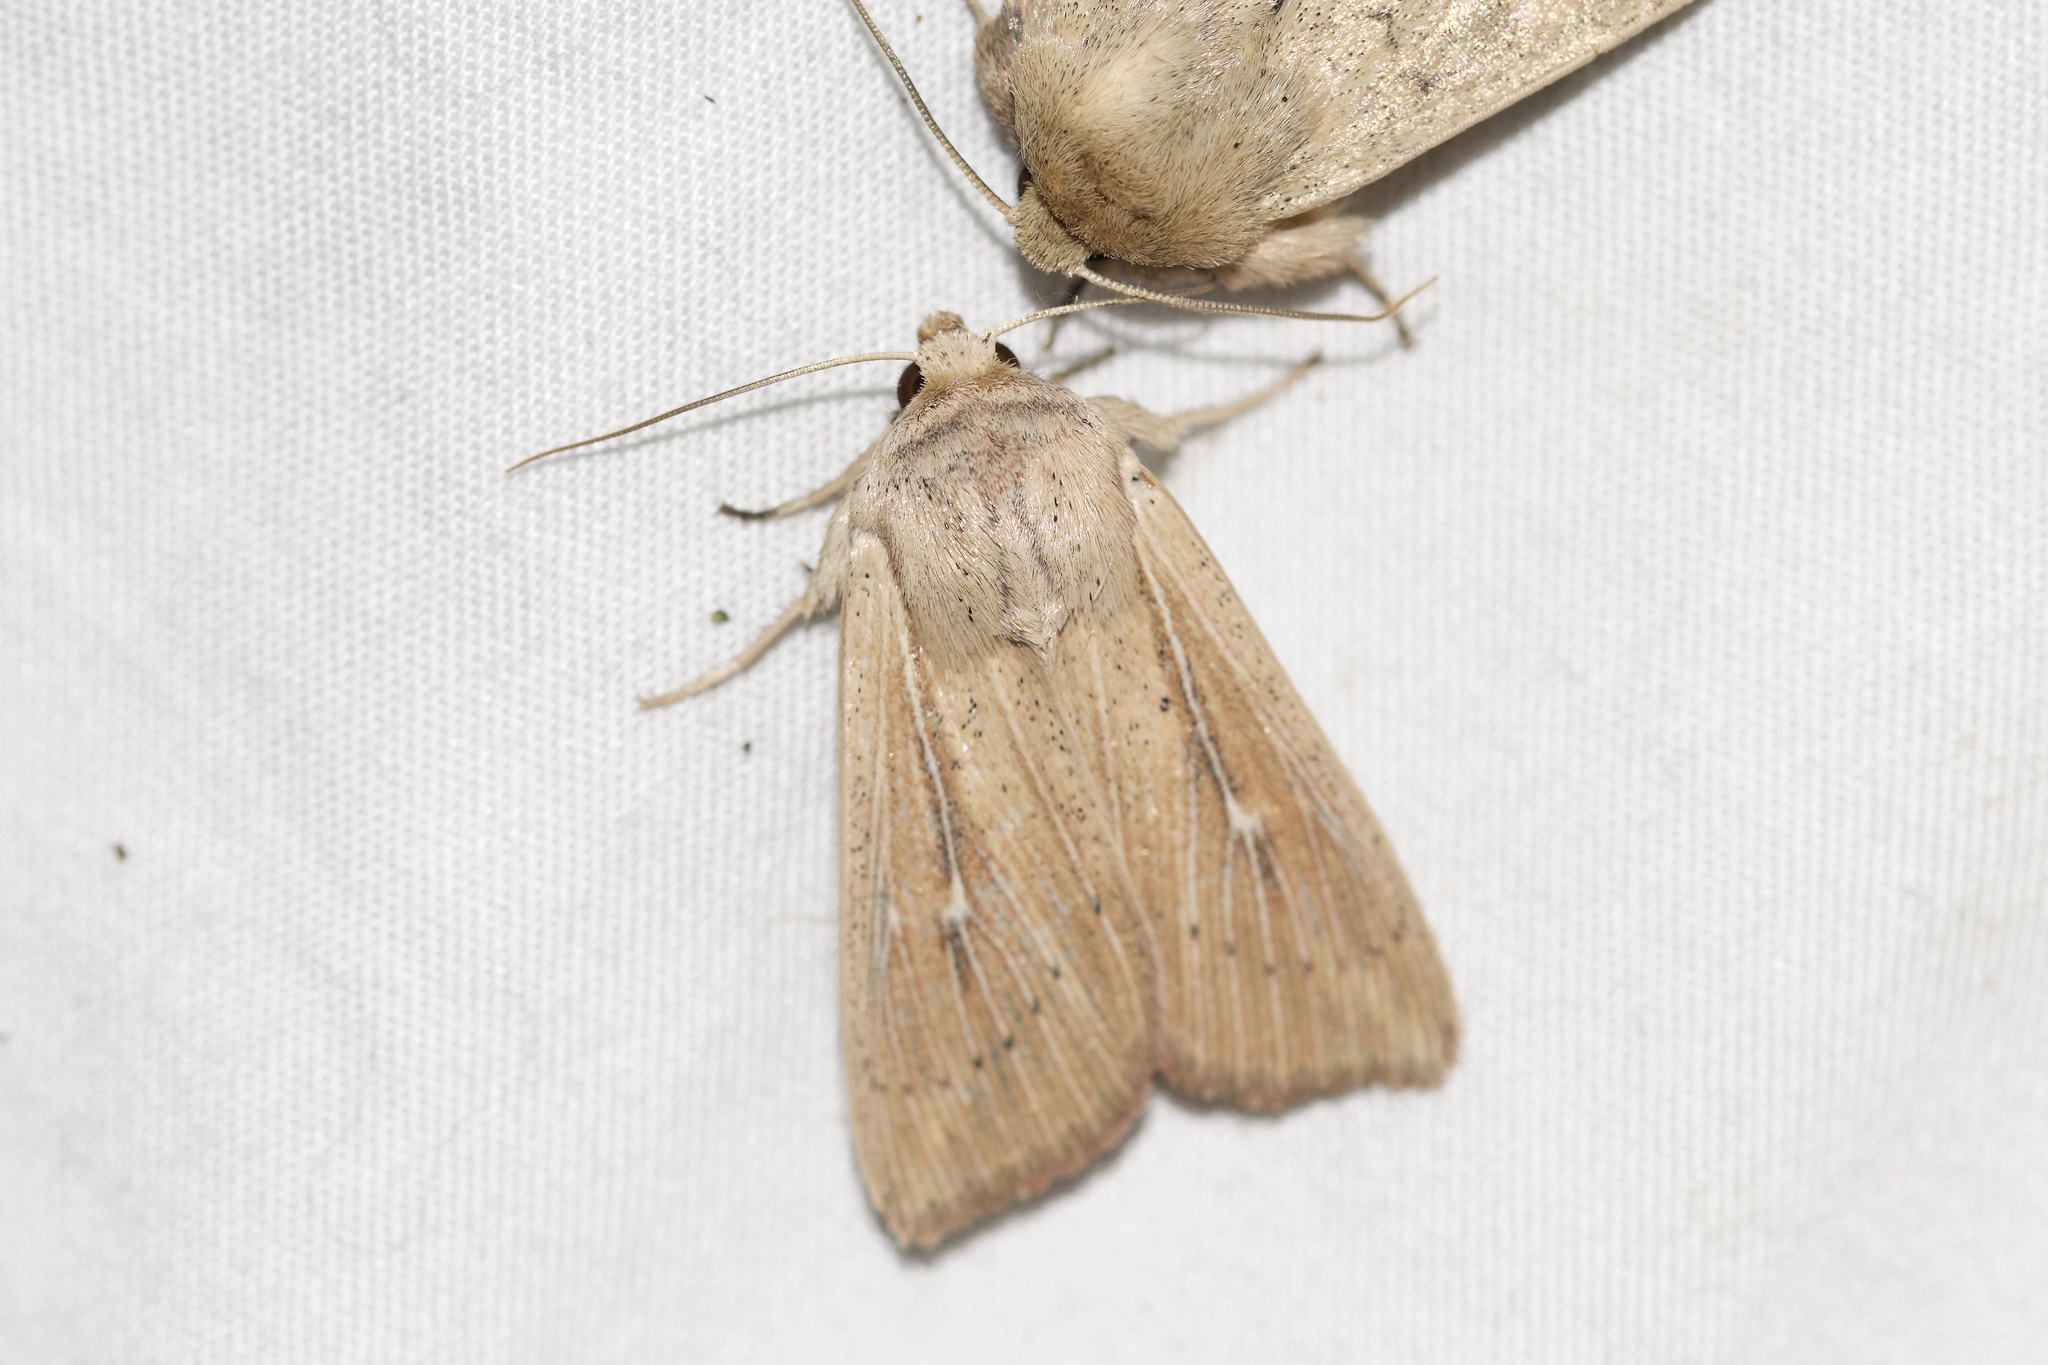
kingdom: Animalia
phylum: Arthropoda
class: Insecta
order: Lepidoptera
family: Noctuidae
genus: Leucania
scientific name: Leucania linda
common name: Linda's wainscot
